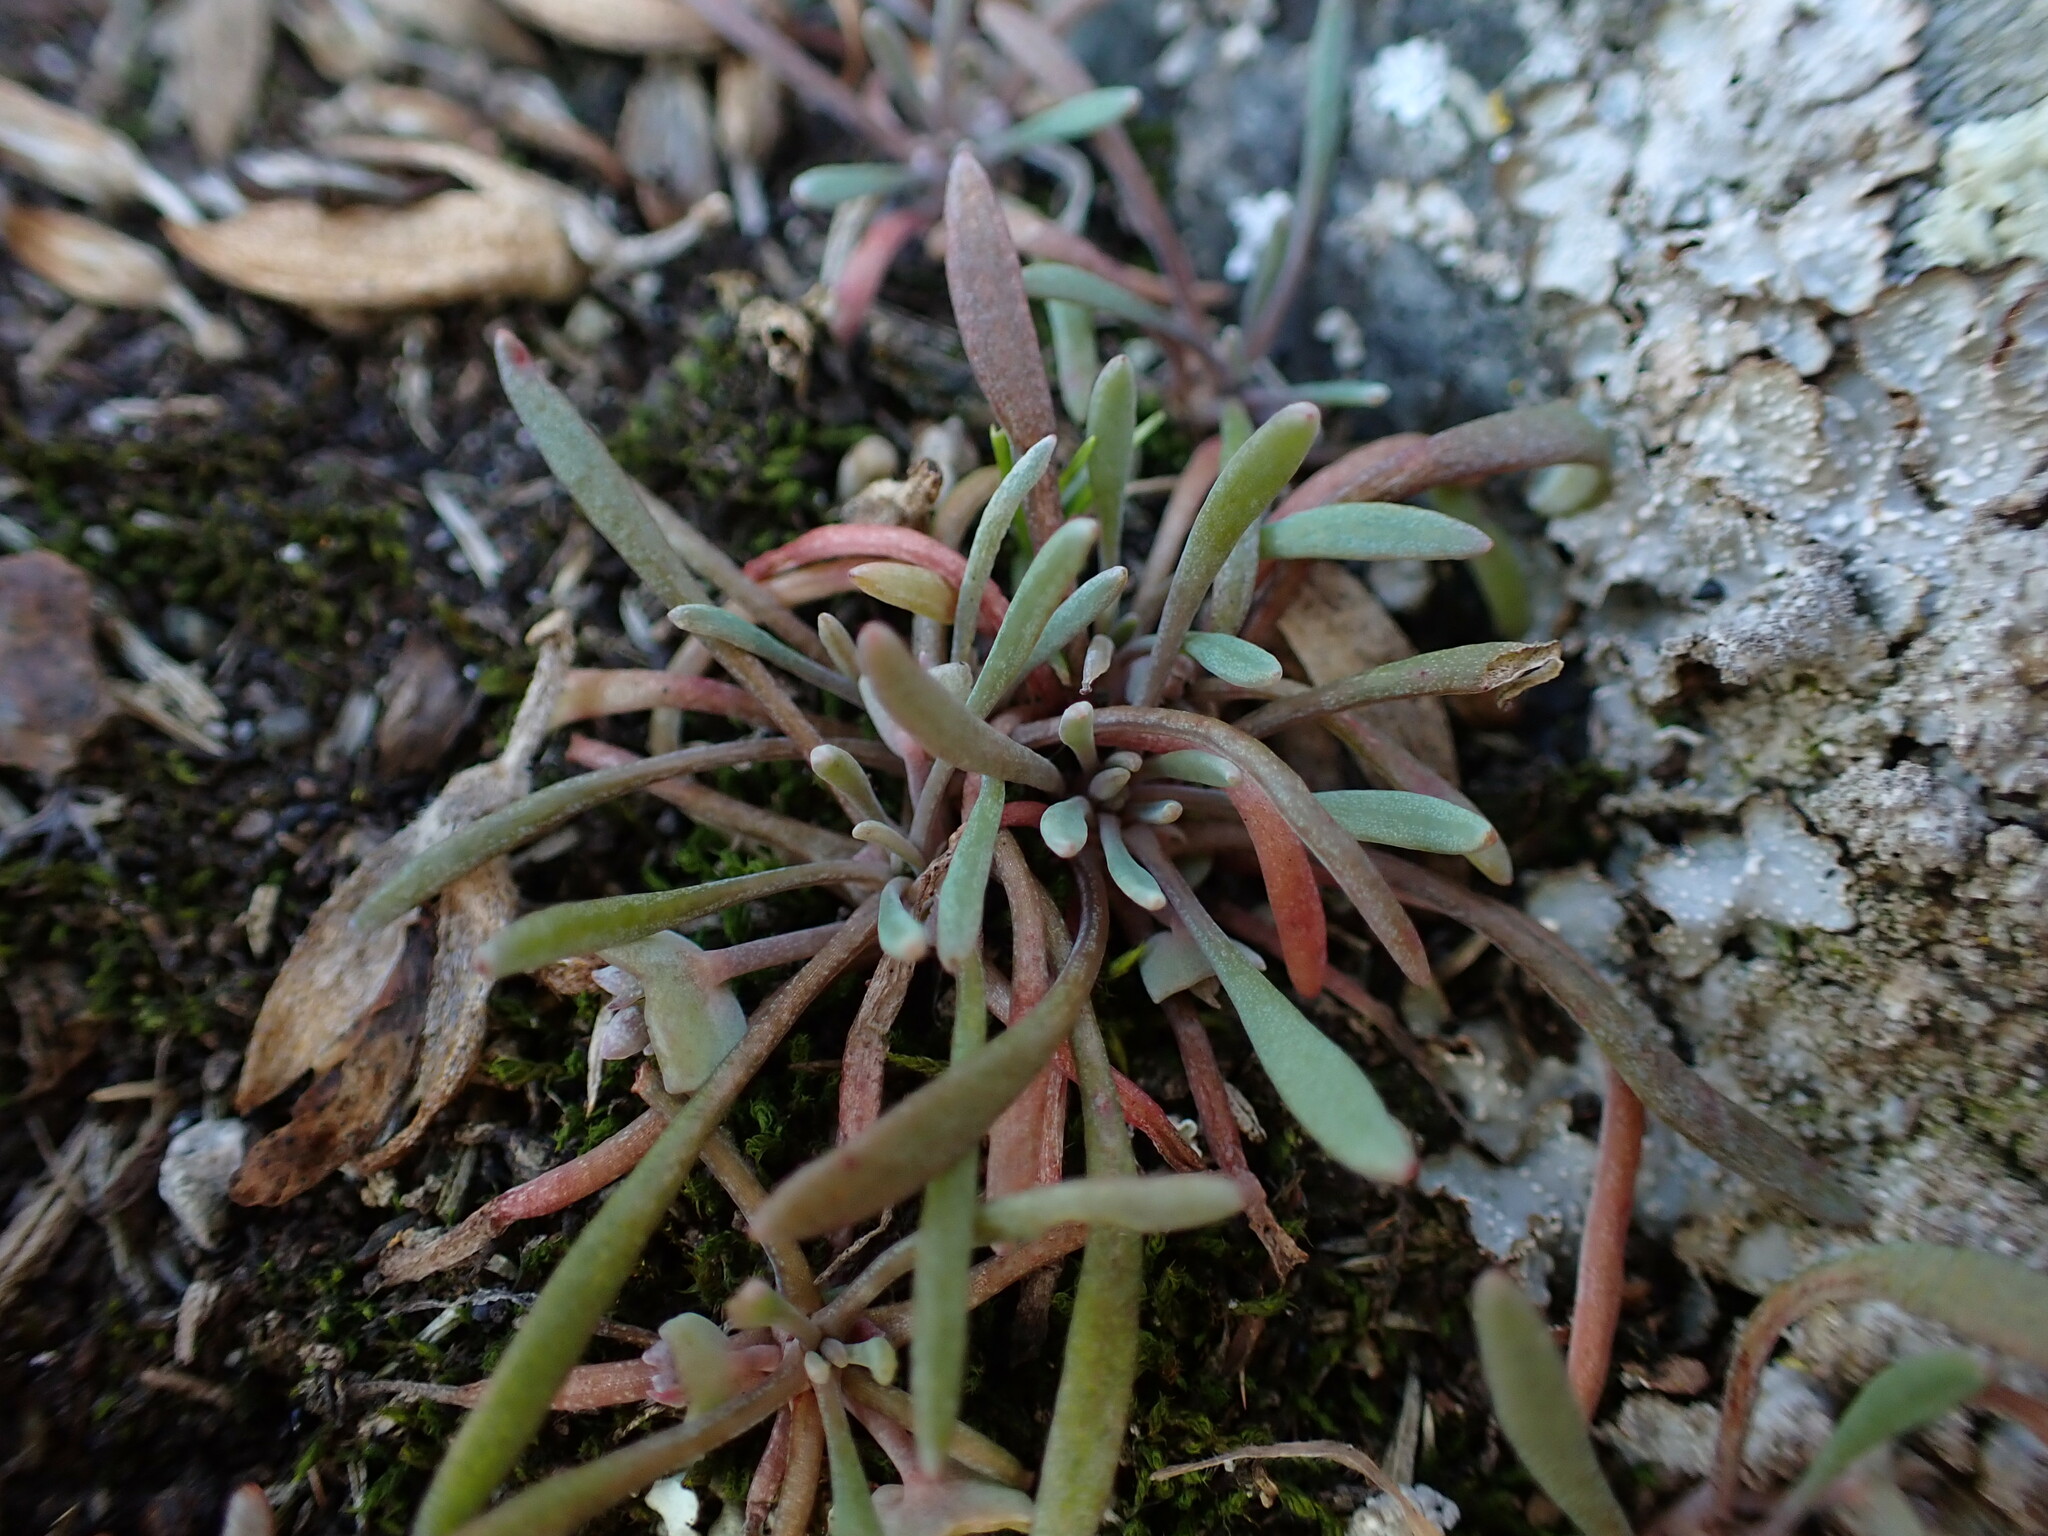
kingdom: Plantae
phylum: Tracheophyta
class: Magnoliopsida
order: Caryophyllales
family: Montiaceae
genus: Claytonia
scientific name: Claytonia exigua
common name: Pale spring beauty
